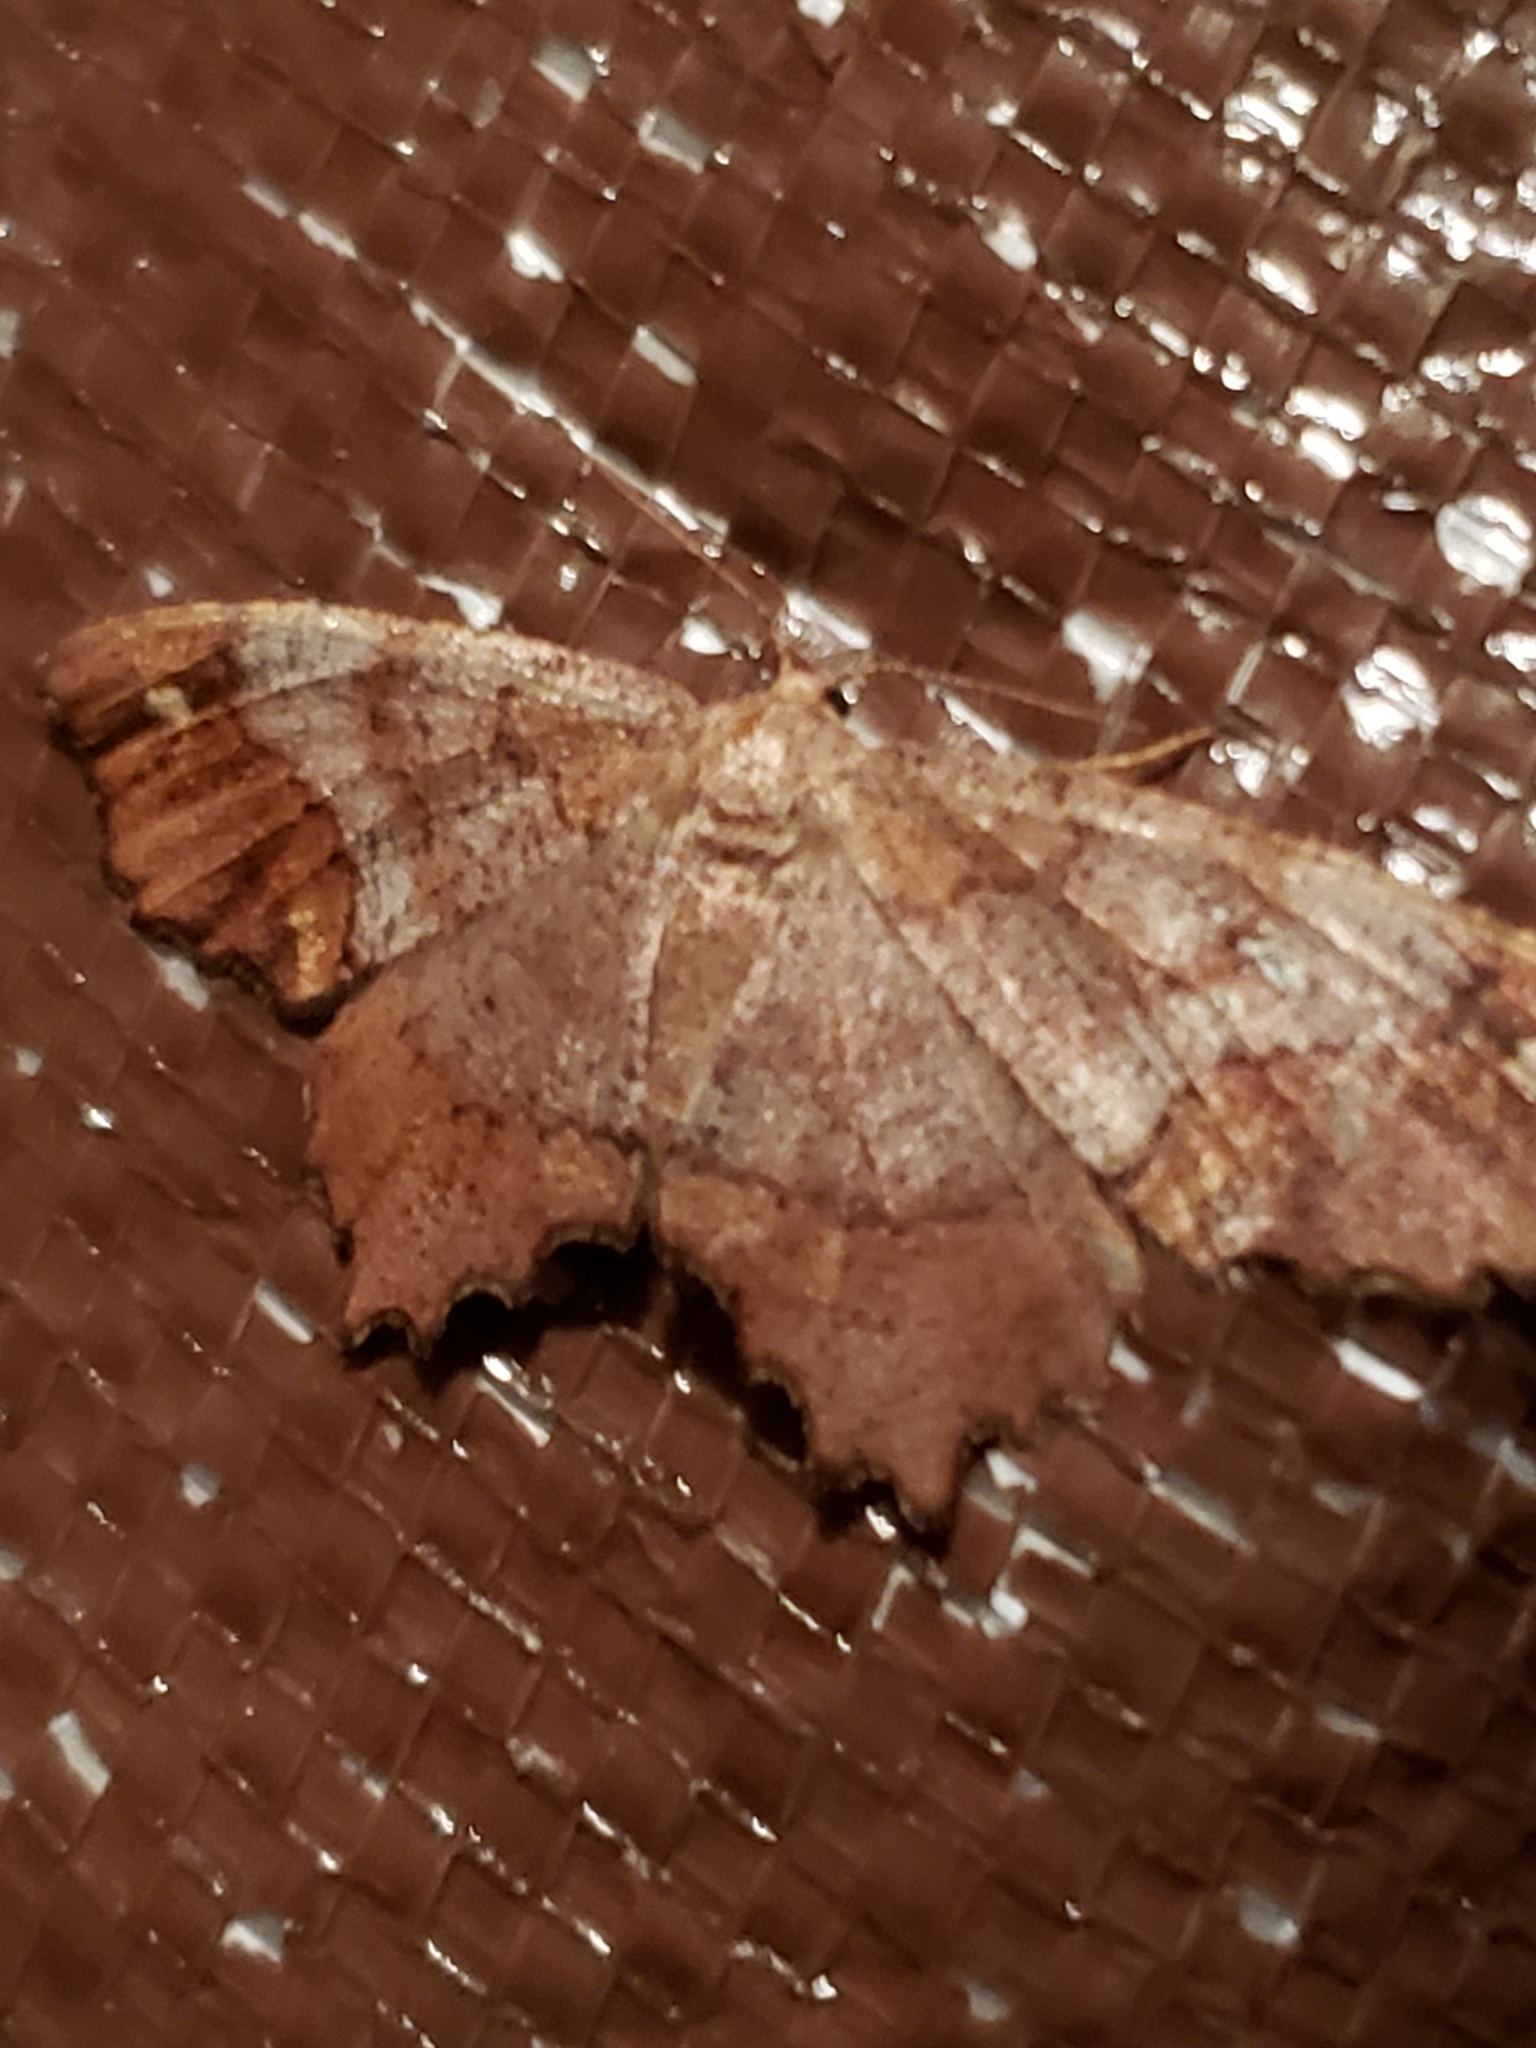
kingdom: Animalia
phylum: Arthropoda
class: Insecta
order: Lepidoptera
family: Geometridae
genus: Hypagyrtis
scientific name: Hypagyrtis unipunctata
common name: One-spotted variant
